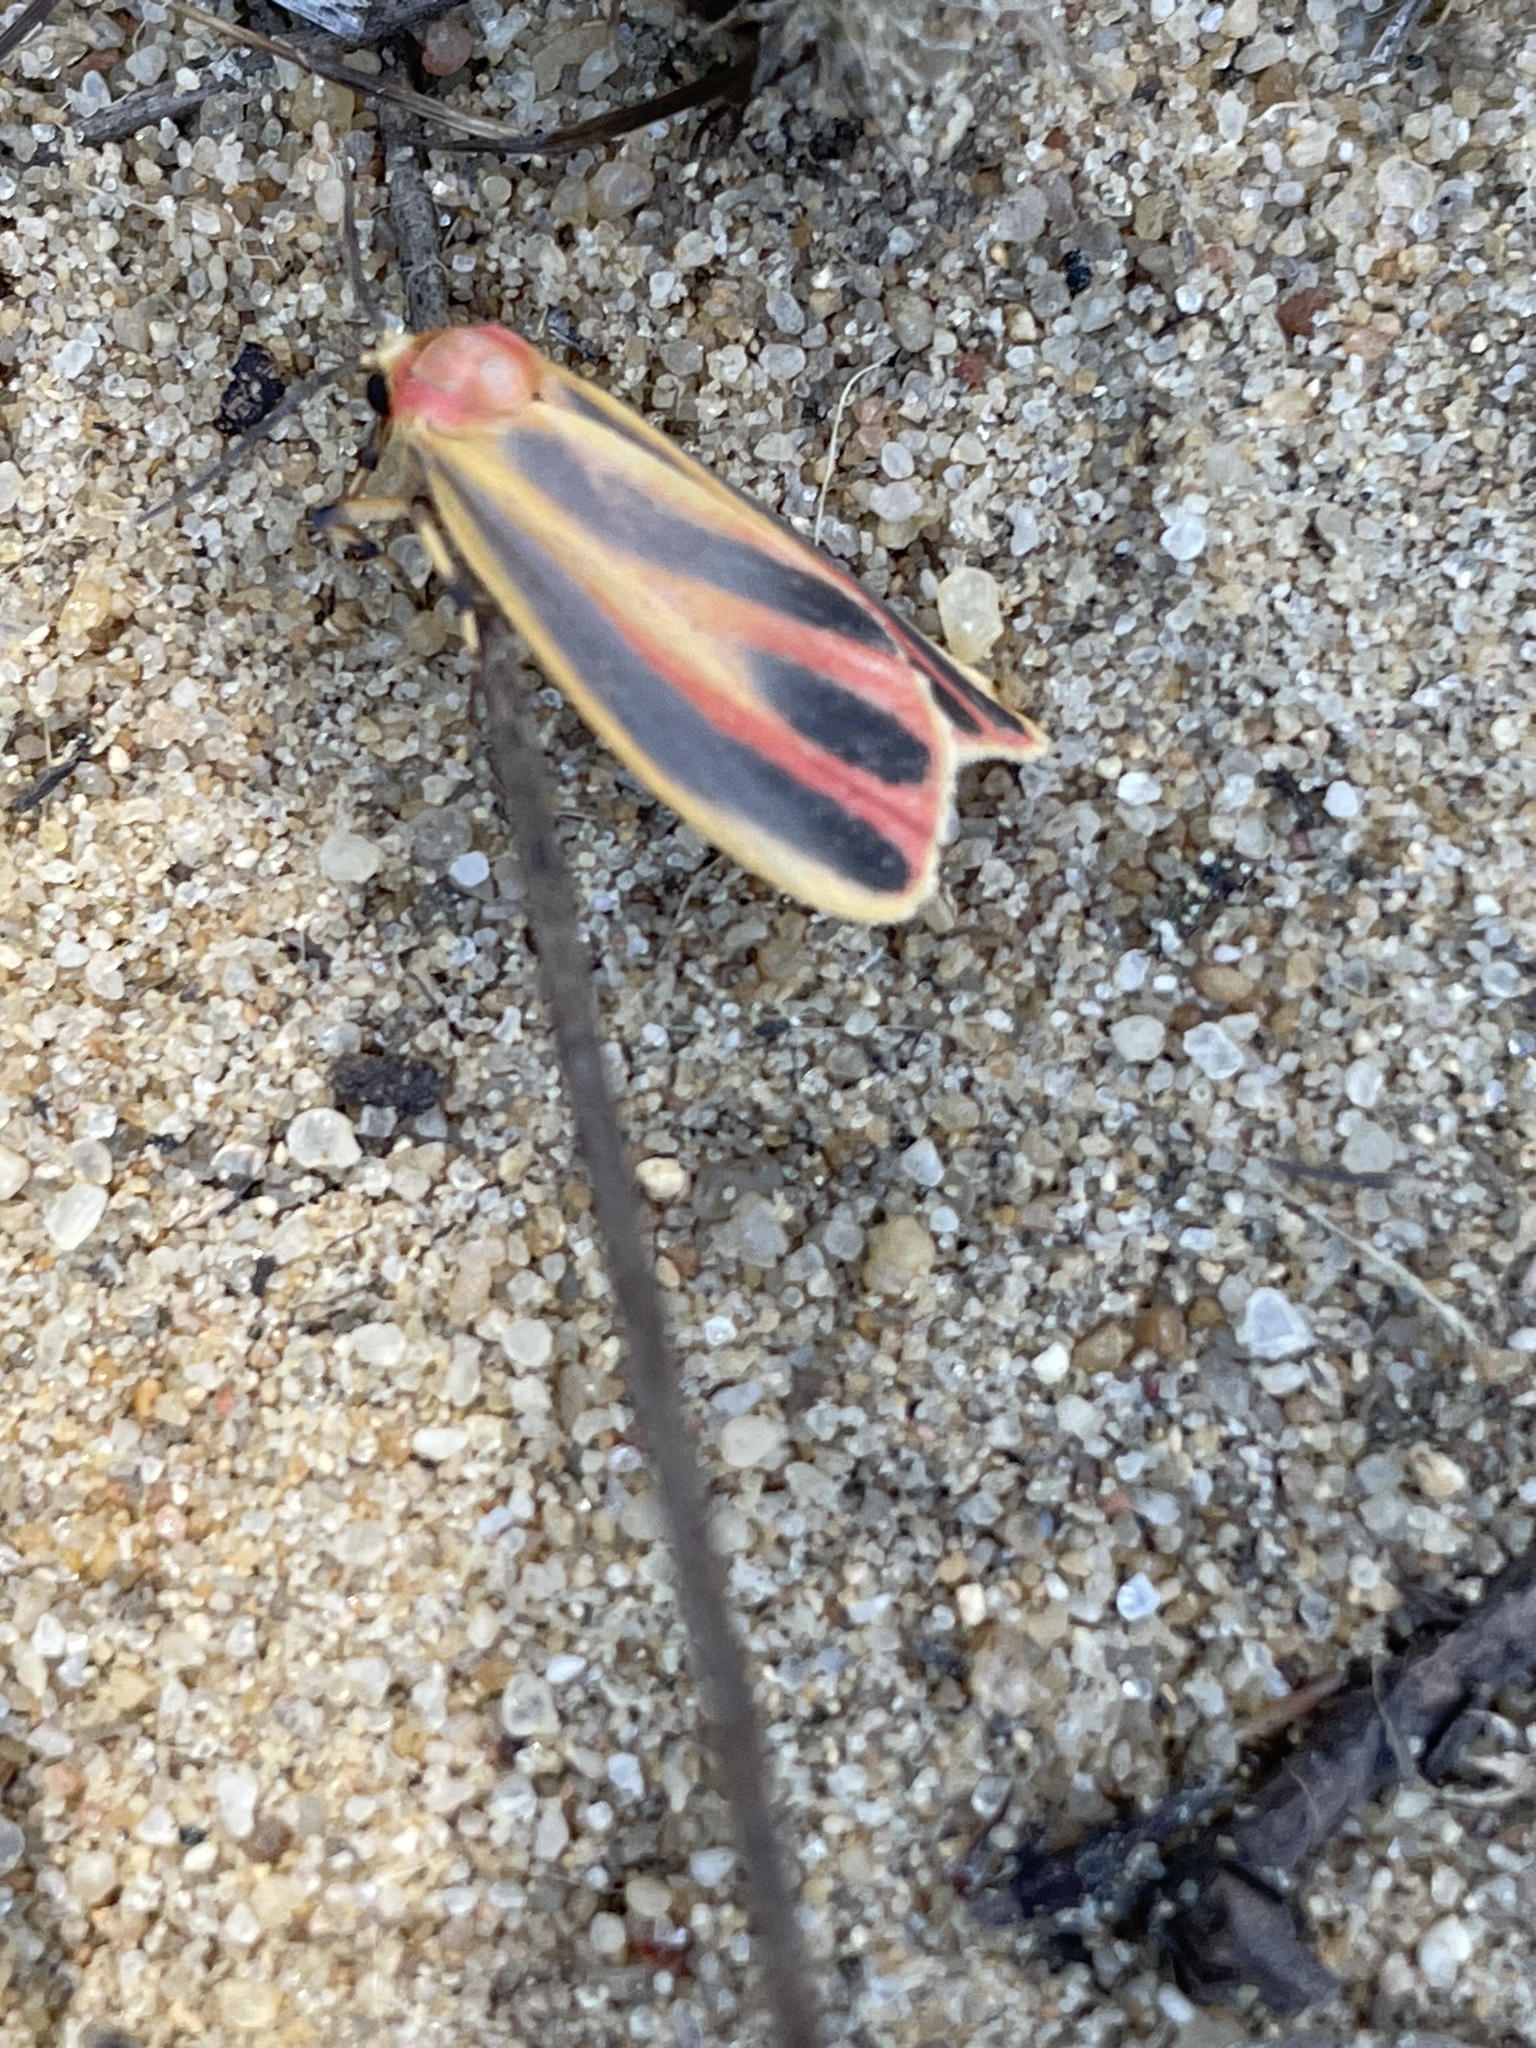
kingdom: Animalia
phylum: Arthropoda
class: Insecta
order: Lepidoptera
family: Erebidae
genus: Hypoprepia
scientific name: Hypoprepia fucosa
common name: Painted lichen moth
